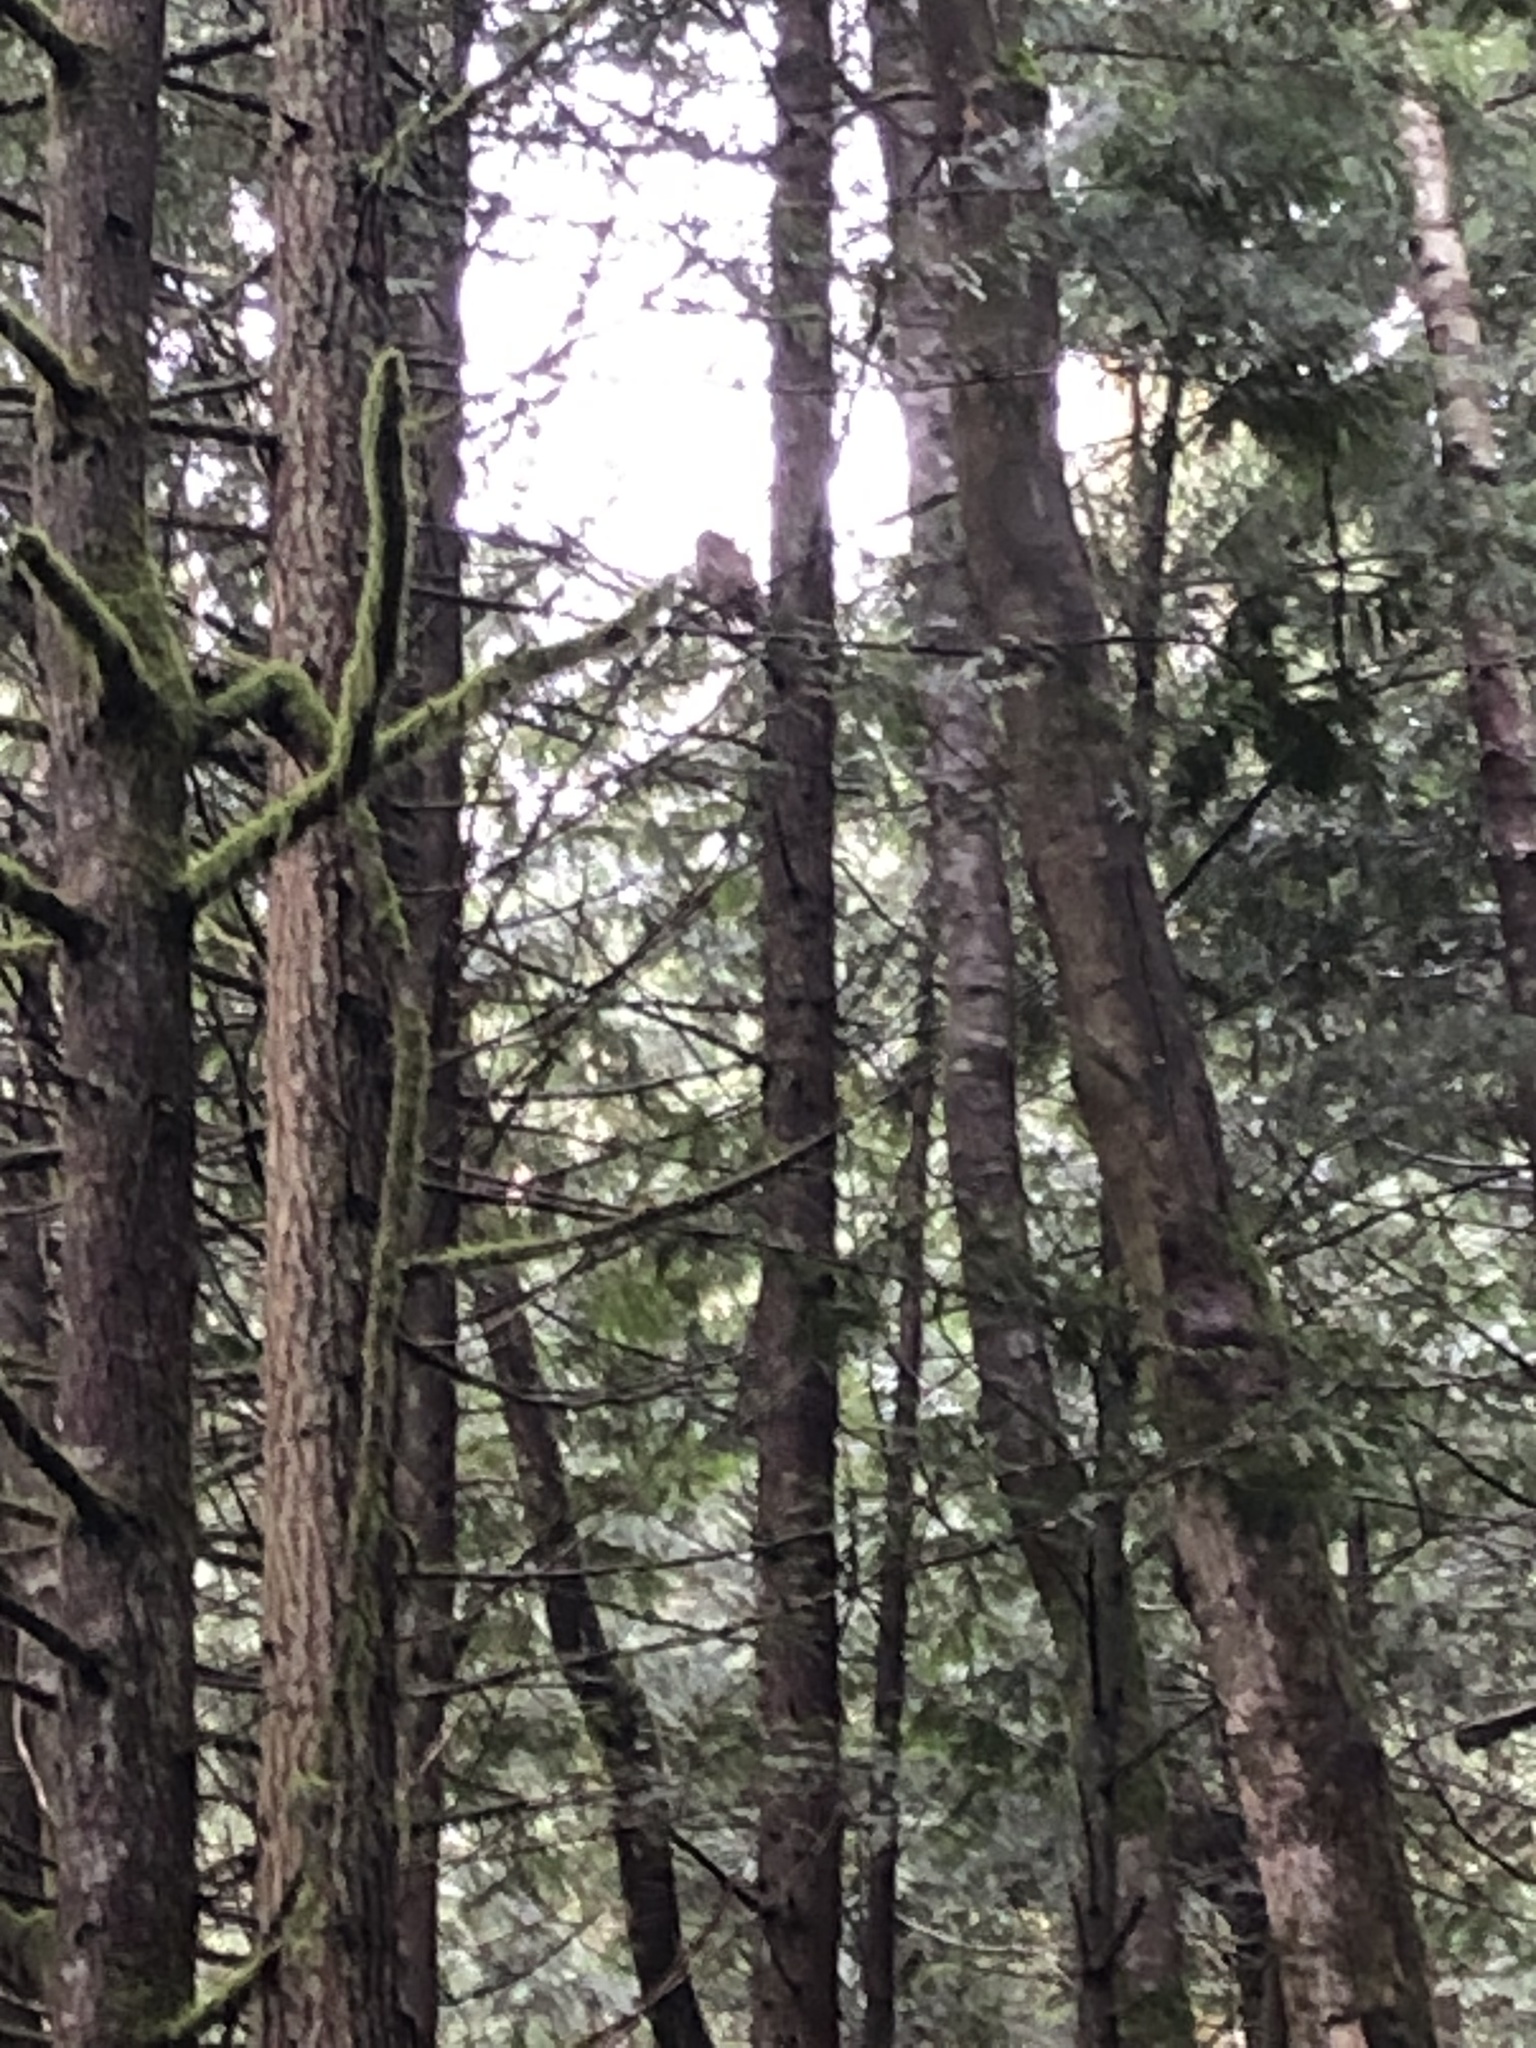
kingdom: Animalia
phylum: Chordata
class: Aves
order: Strigiformes
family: Strigidae
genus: Strix
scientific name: Strix varia
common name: Barred owl
